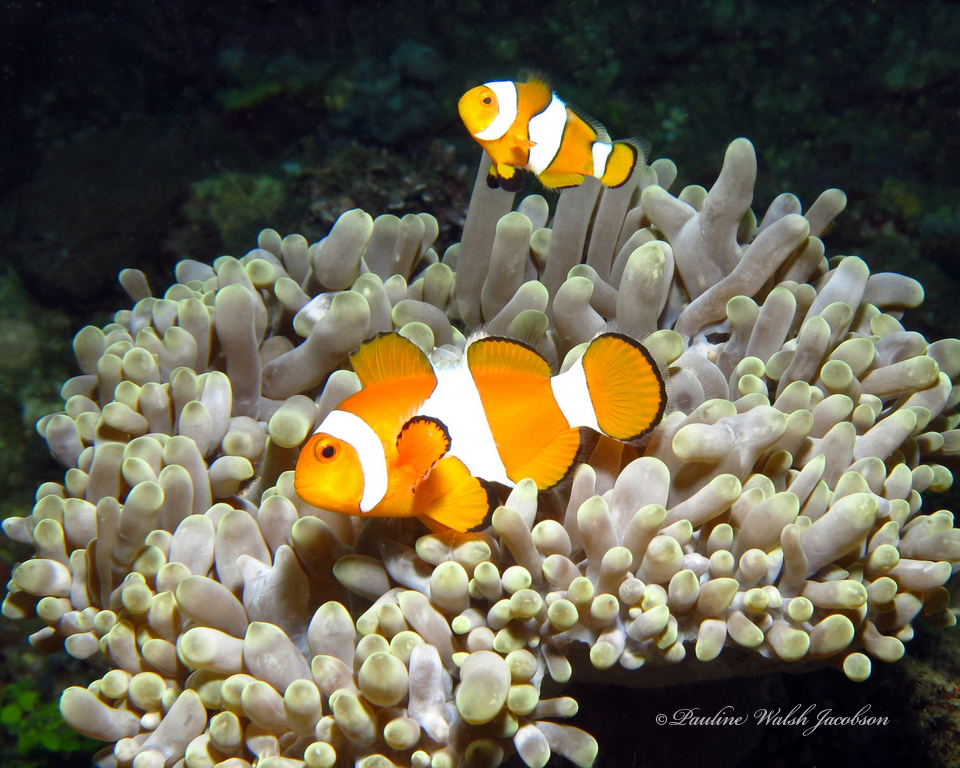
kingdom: Animalia
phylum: Chordata
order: Perciformes
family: Pomacentridae
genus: Amphiprion
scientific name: Amphiprion ocellaris
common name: Clown anemonefish
